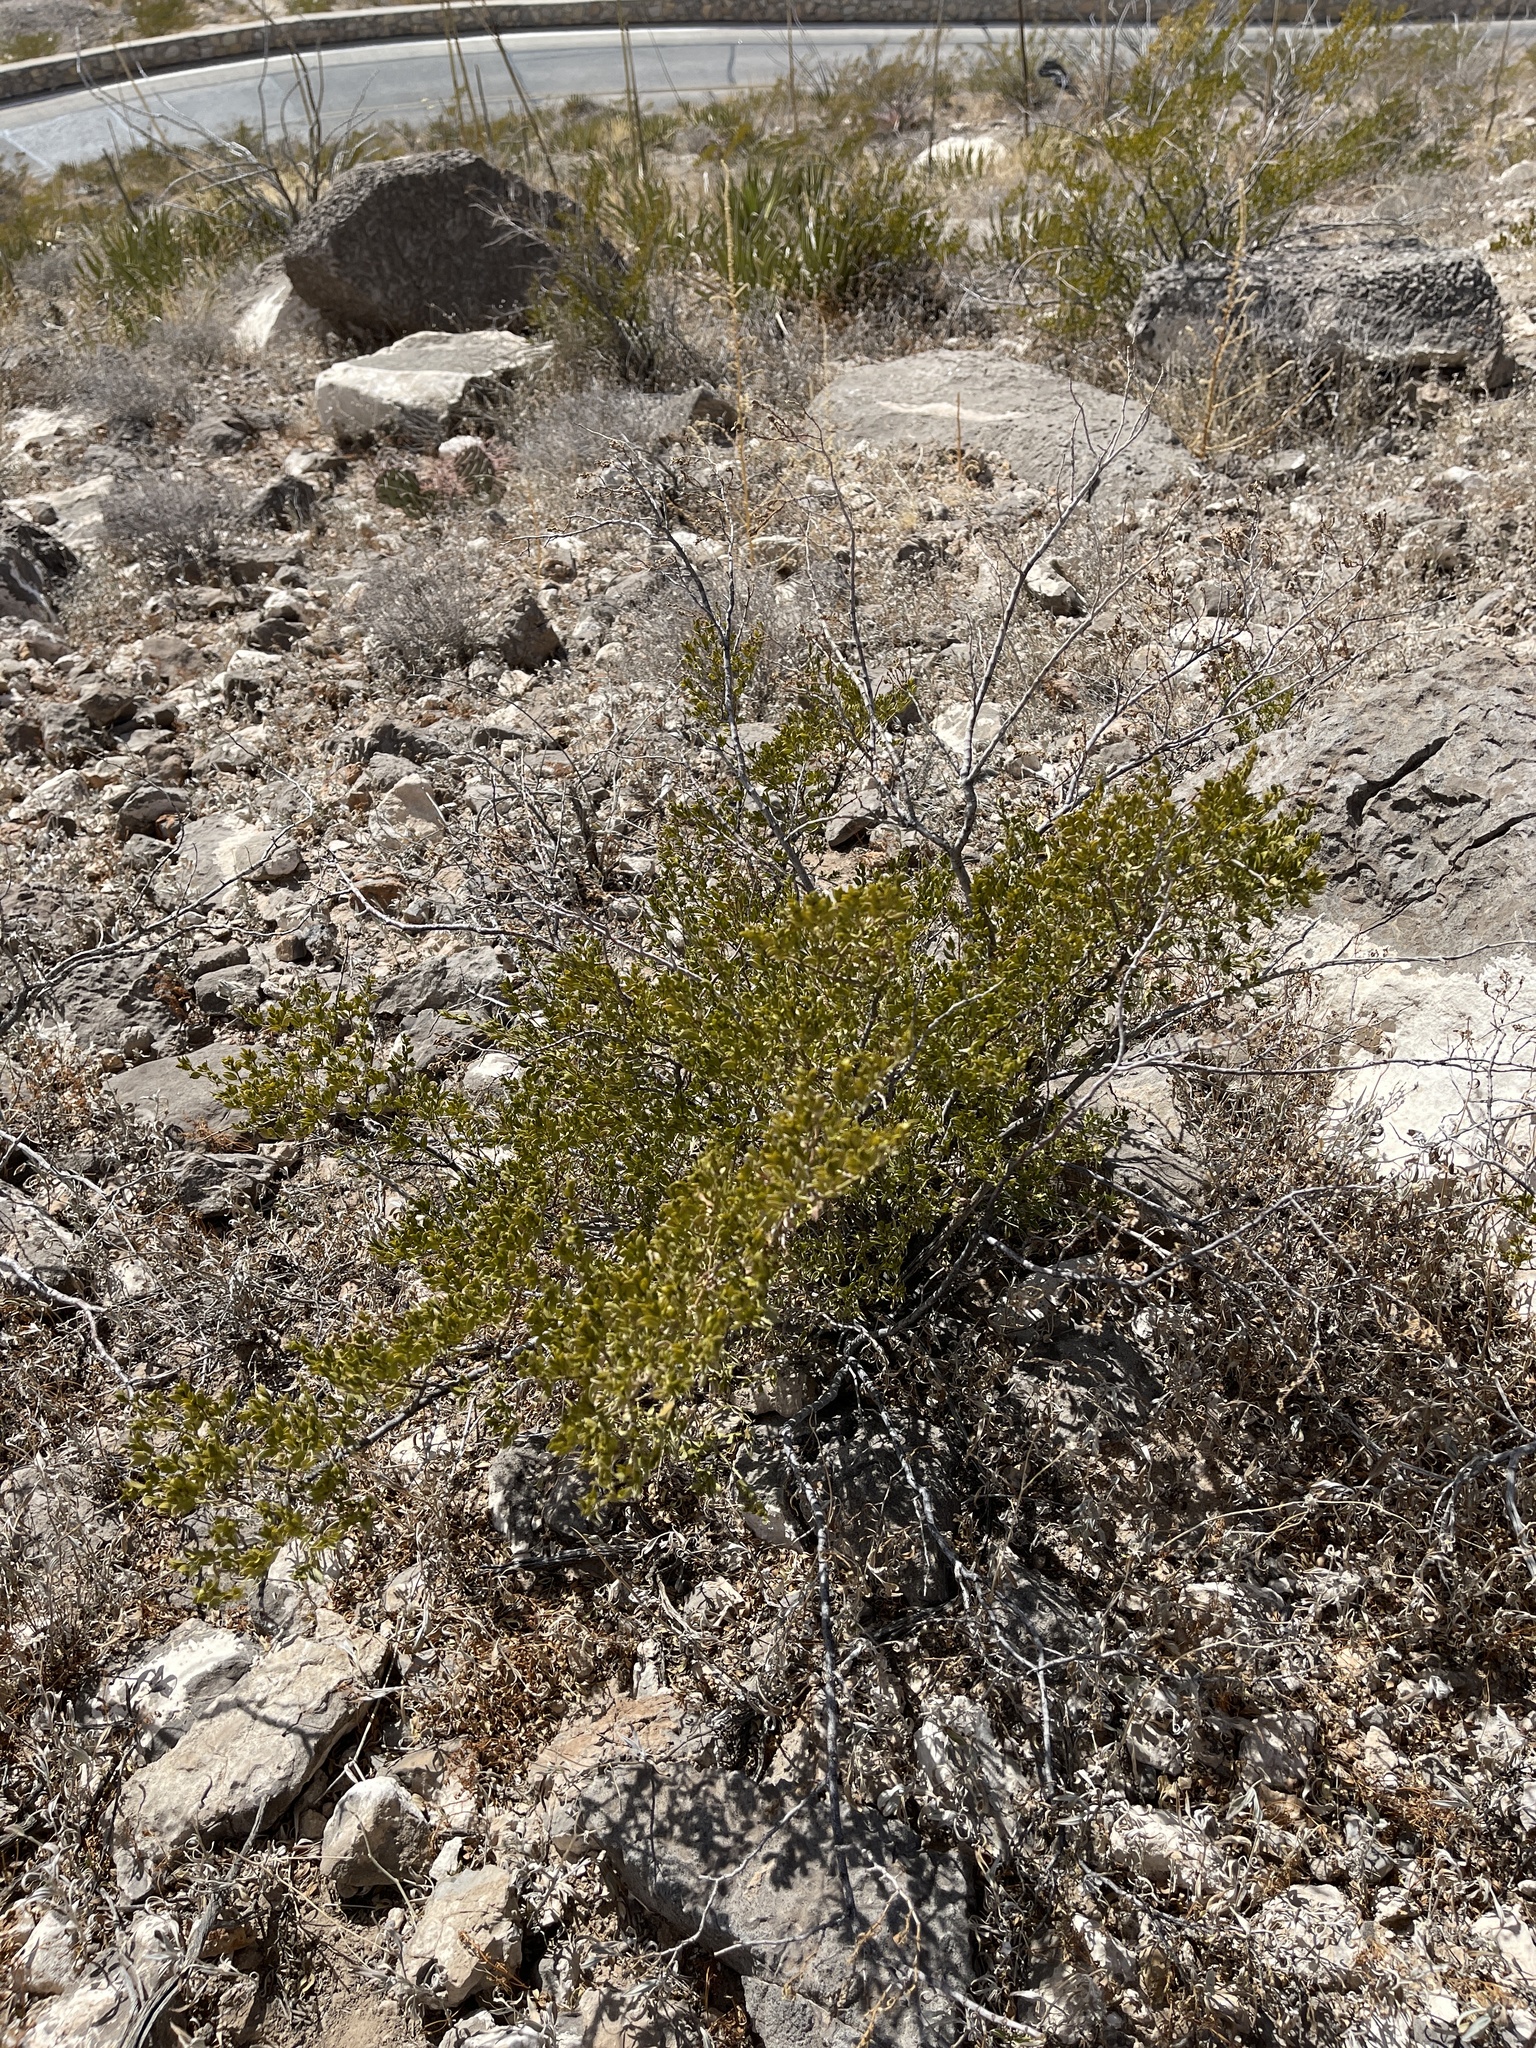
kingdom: Plantae
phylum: Tracheophyta
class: Magnoliopsida
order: Zygophyllales
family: Zygophyllaceae
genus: Larrea
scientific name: Larrea tridentata
